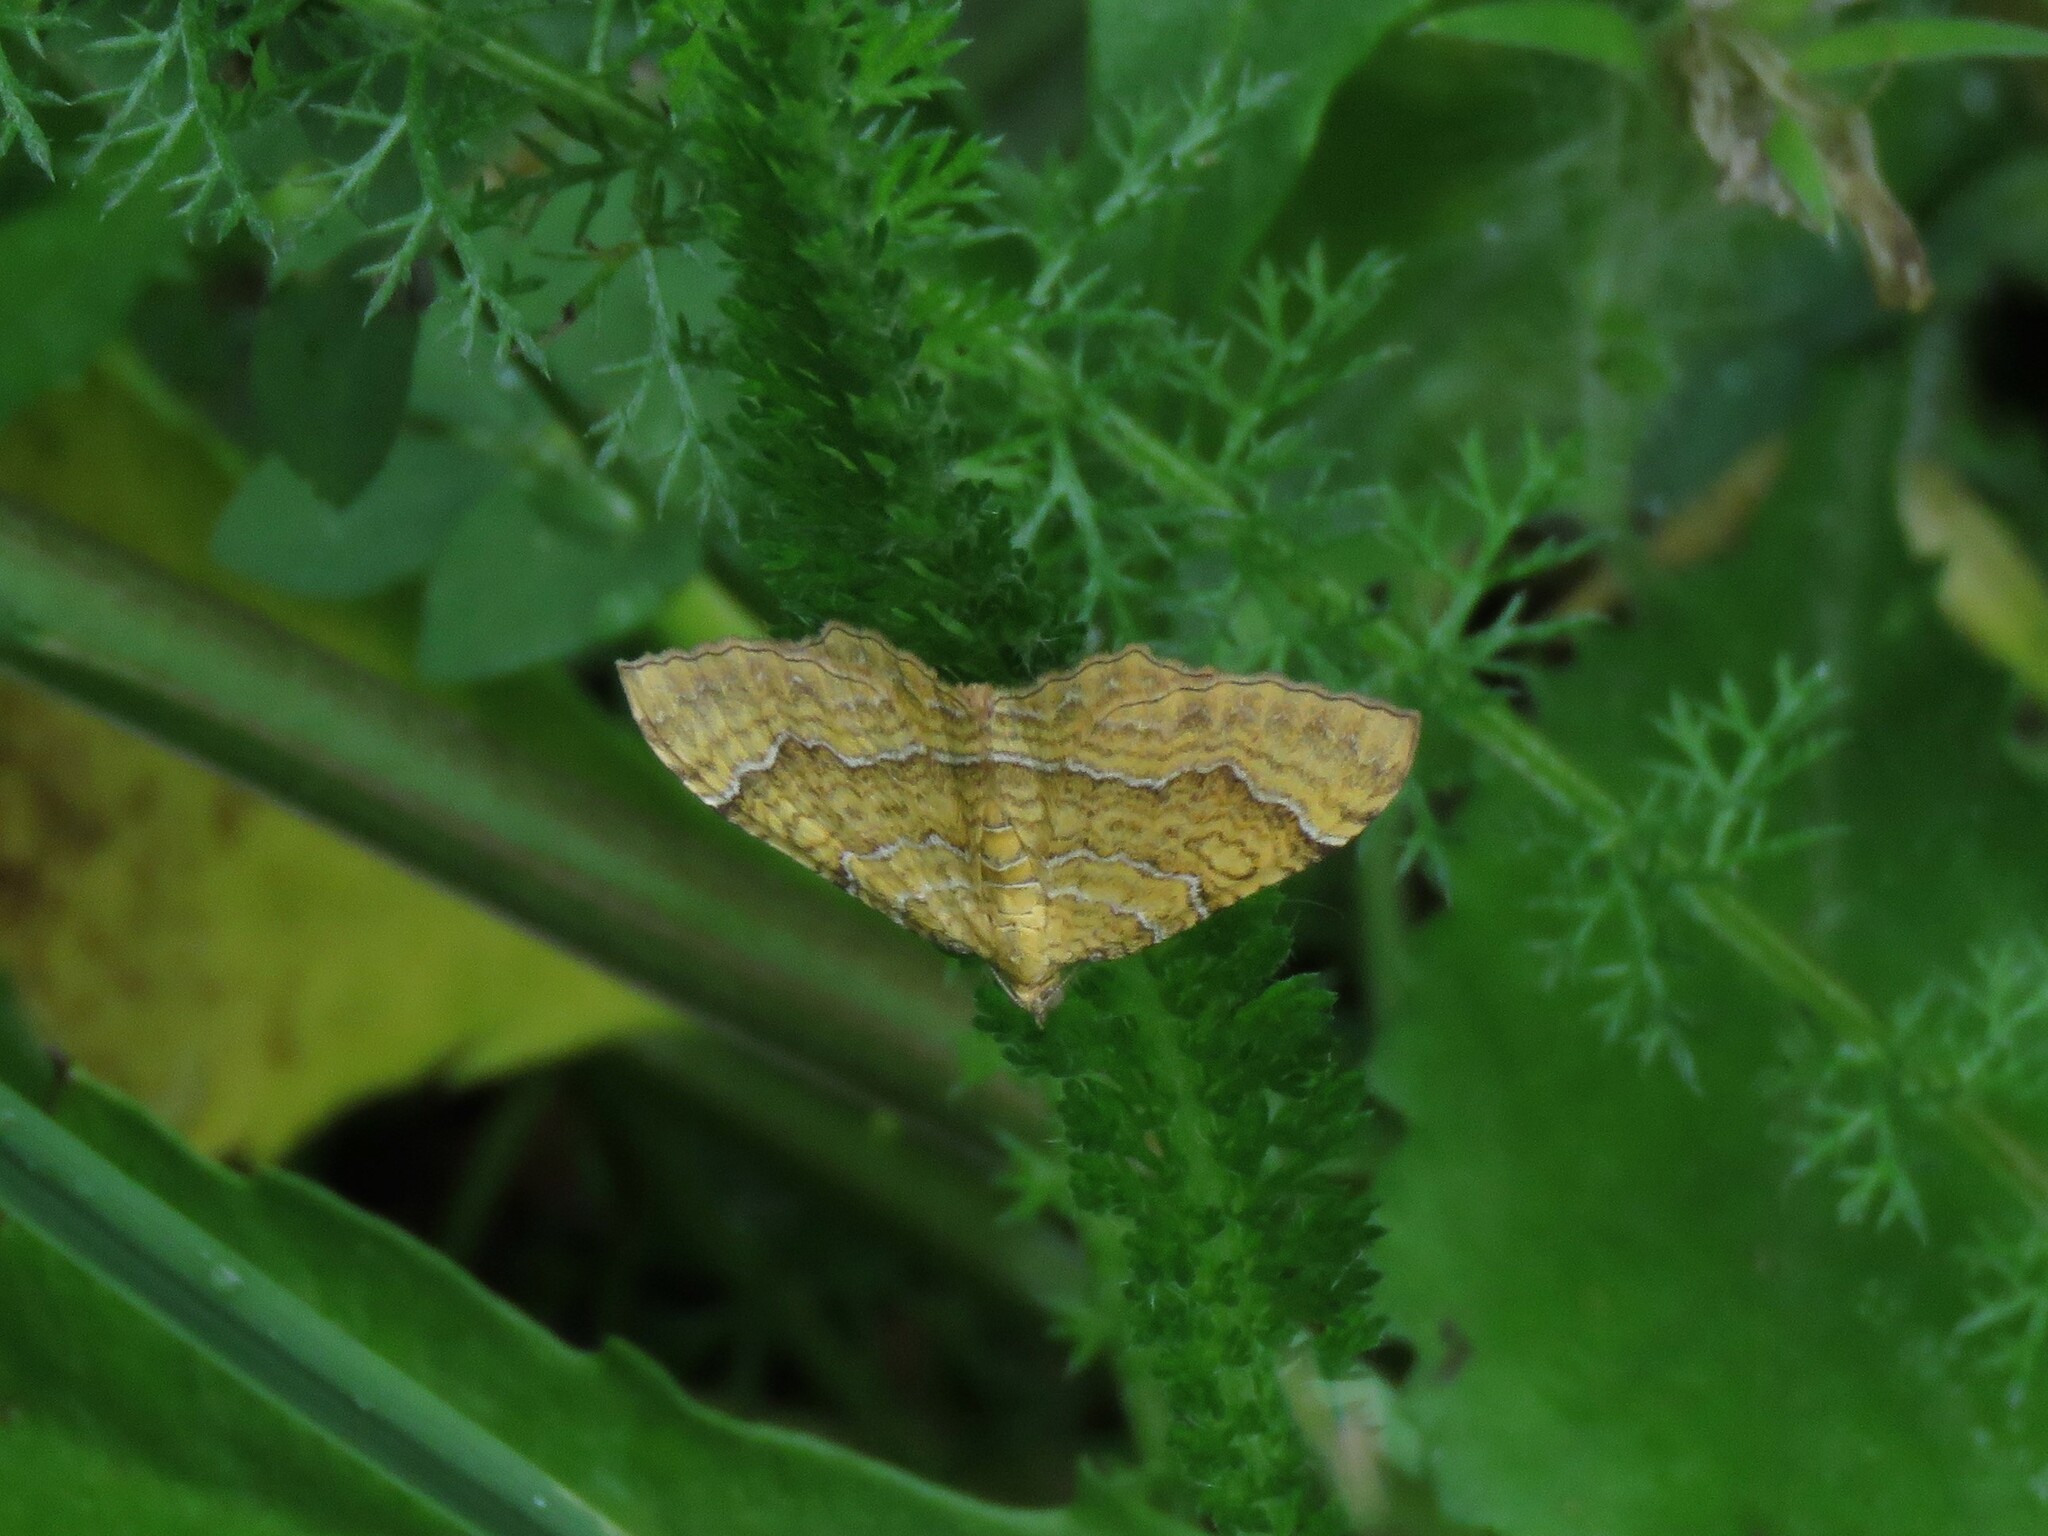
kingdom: Animalia
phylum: Arthropoda
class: Insecta
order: Lepidoptera
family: Geometridae
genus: Camptogramma
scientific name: Camptogramma bilineata
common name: Yellow shell
